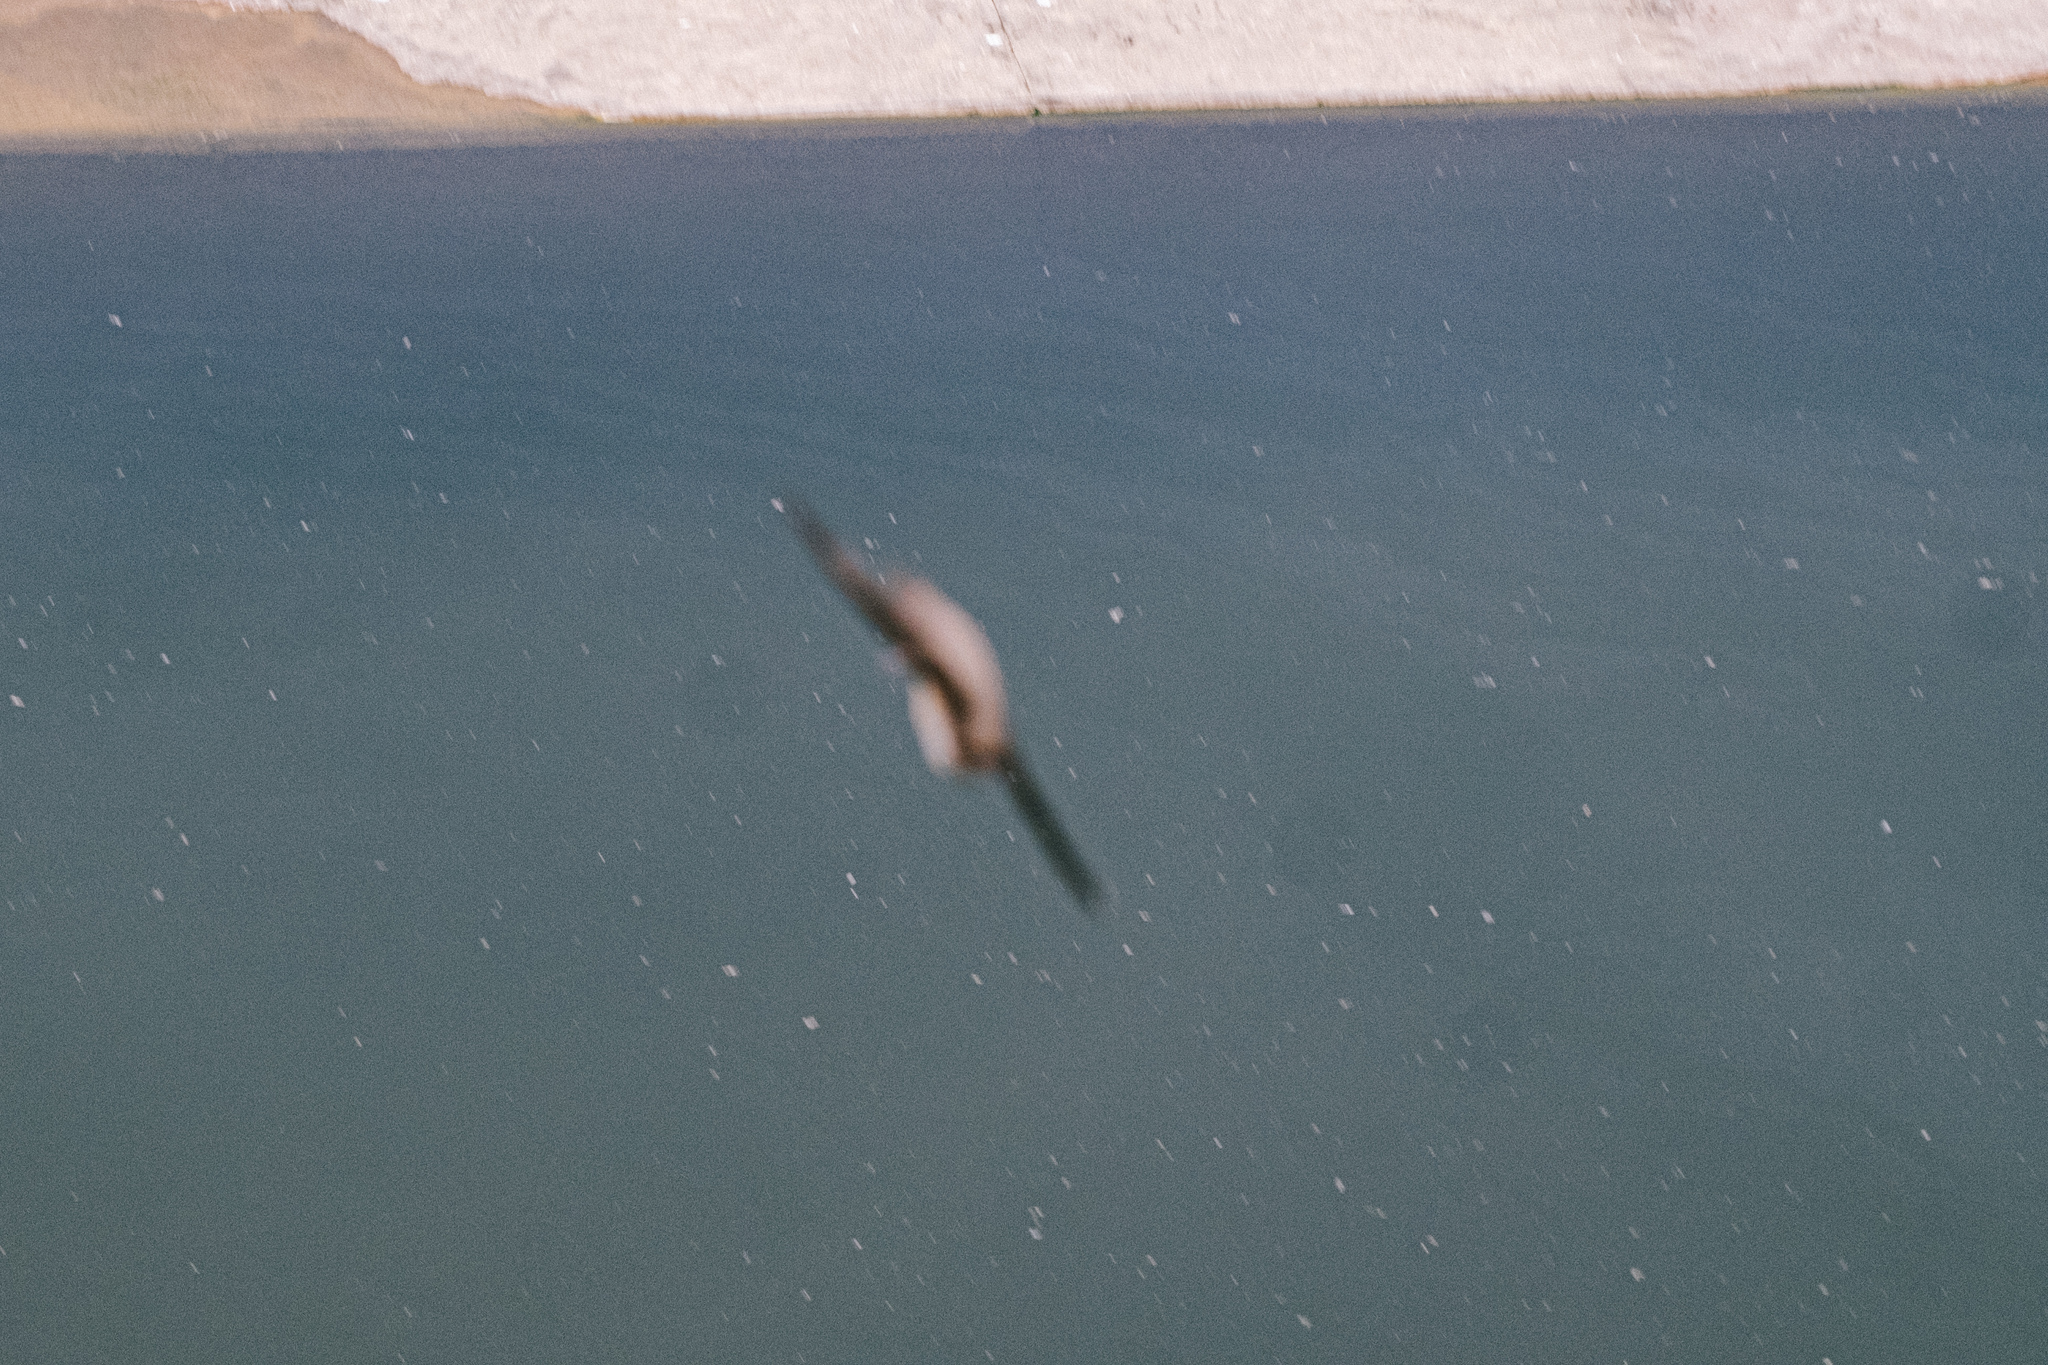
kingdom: Animalia
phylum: Chordata
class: Aves
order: Passeriformes
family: Hirundinidae
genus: Ptyonoprogne
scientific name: Ptyonoprogne rupestris
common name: Eurasian crag martin
